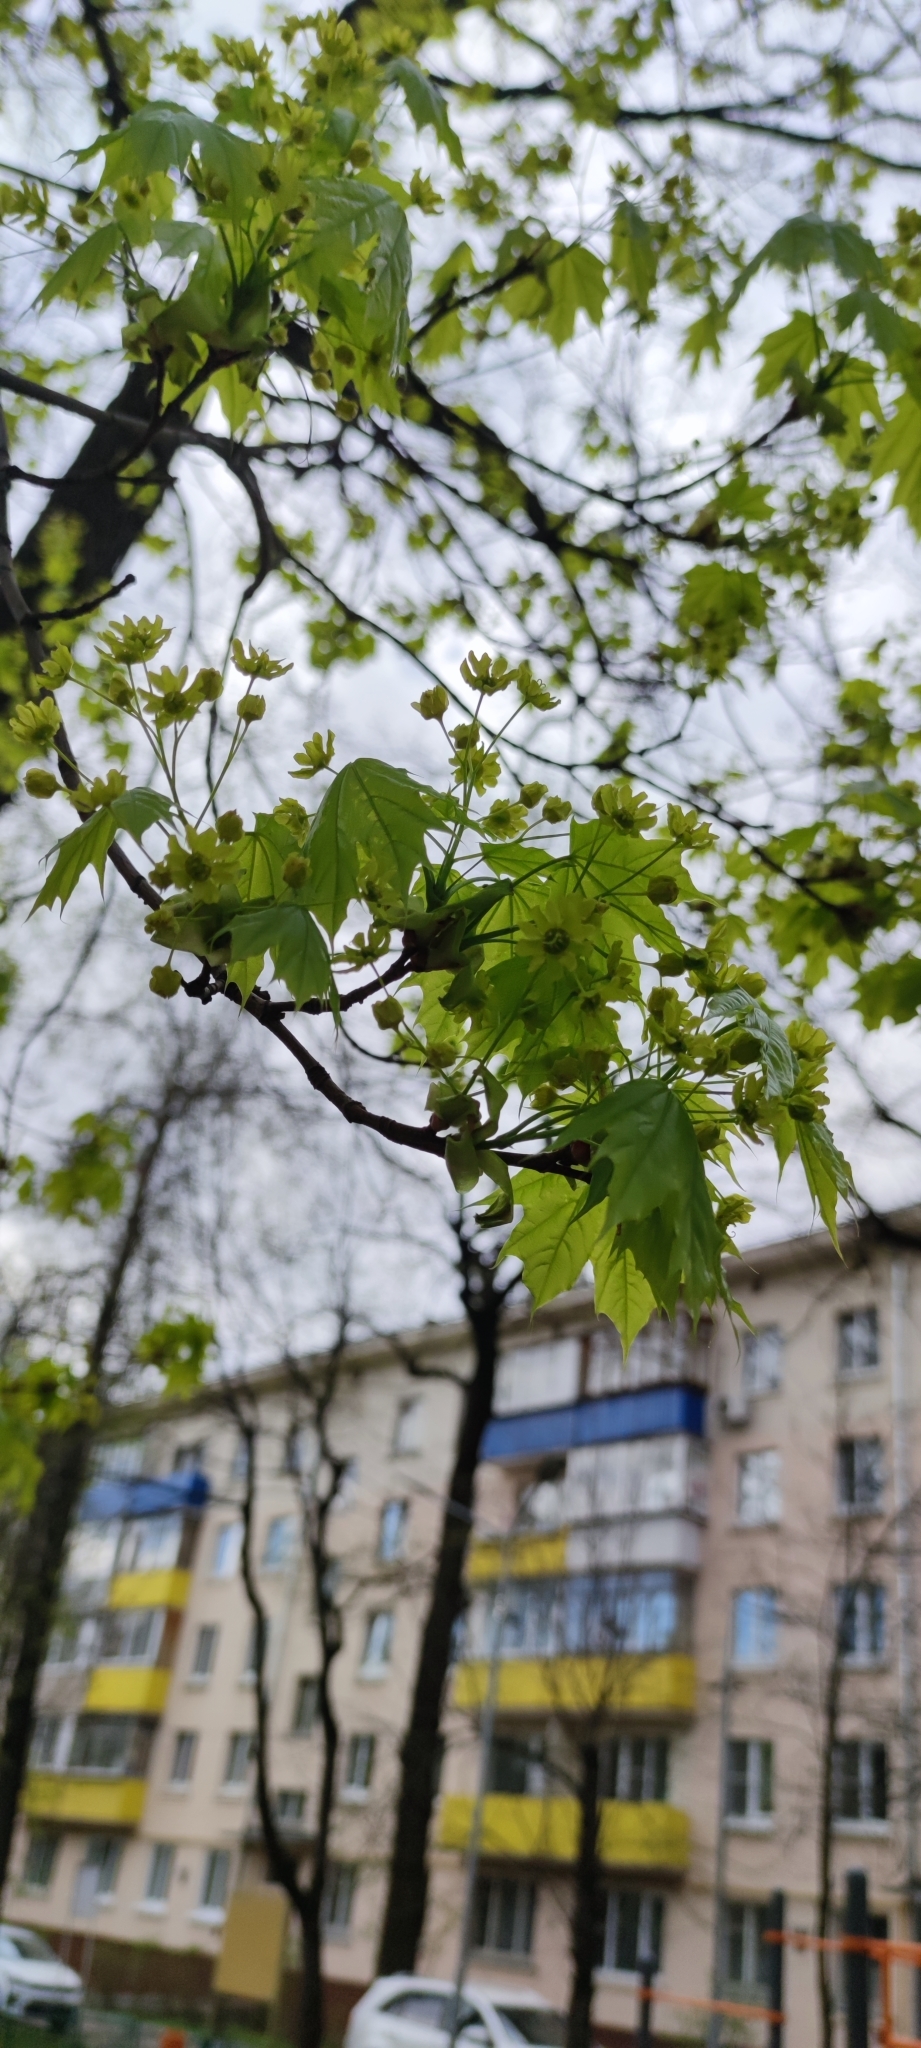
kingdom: Plantae
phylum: Tracheophyta
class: Magnoliopsida
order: Sapindales
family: Sapindaceae
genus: Acer
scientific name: Acer platanoides
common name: Norway maple
